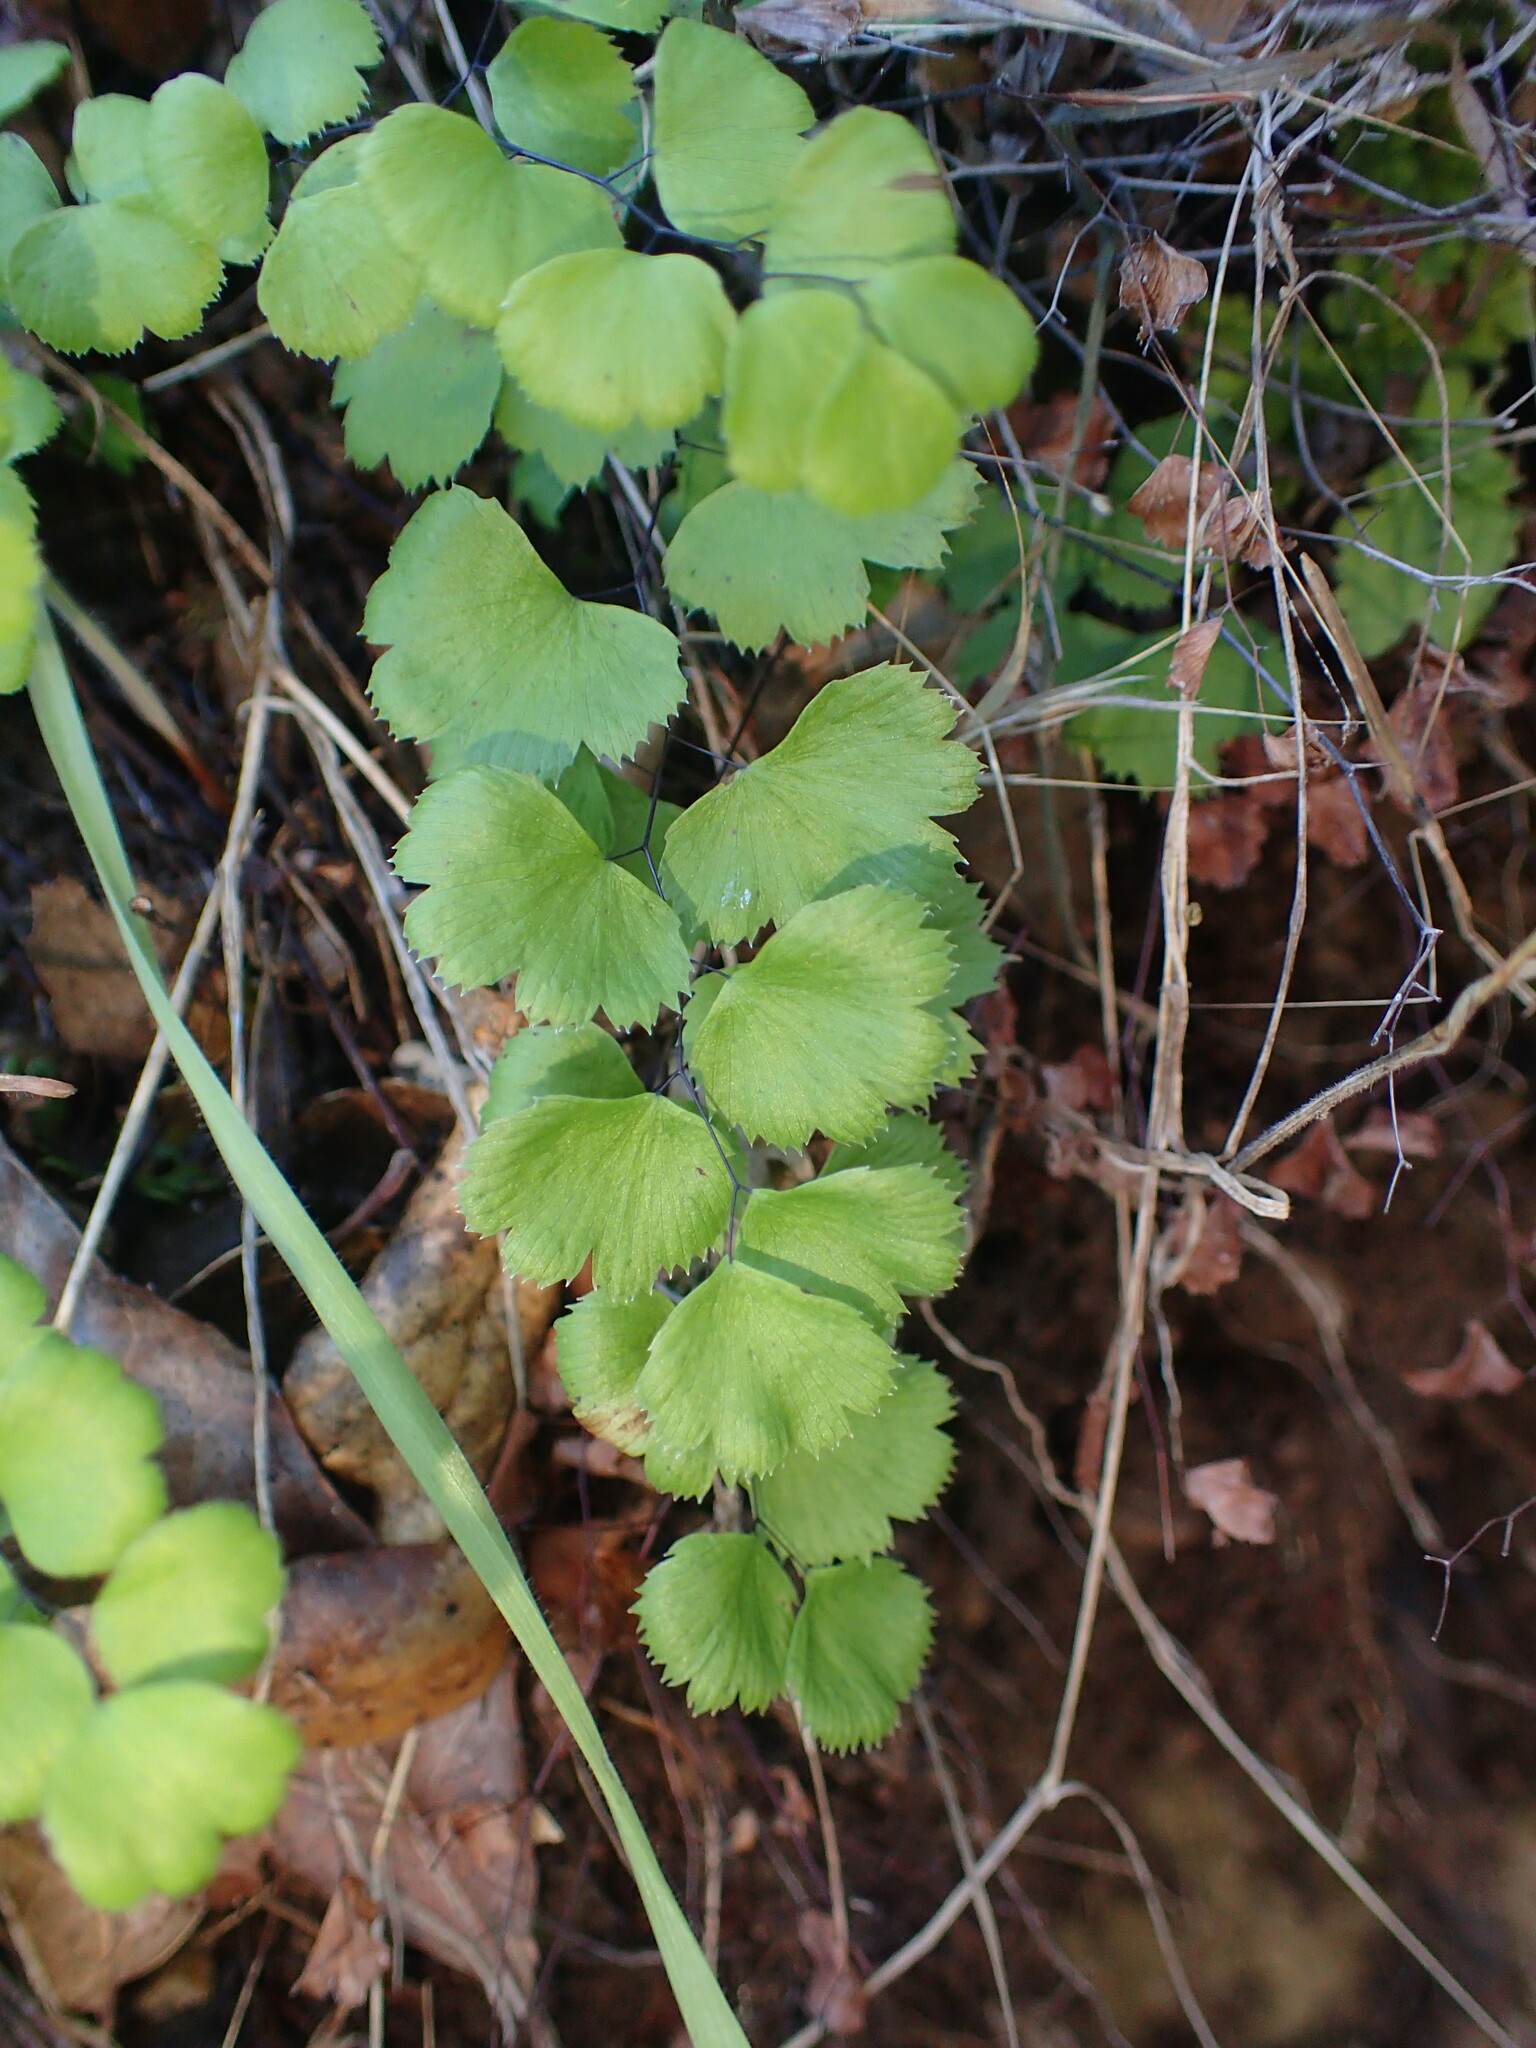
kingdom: Plantae
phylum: Tracheophyta
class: Polypodiopsida
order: Polypodiales
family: Pteridaceae
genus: Adiantum
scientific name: Adiantum jordanii
